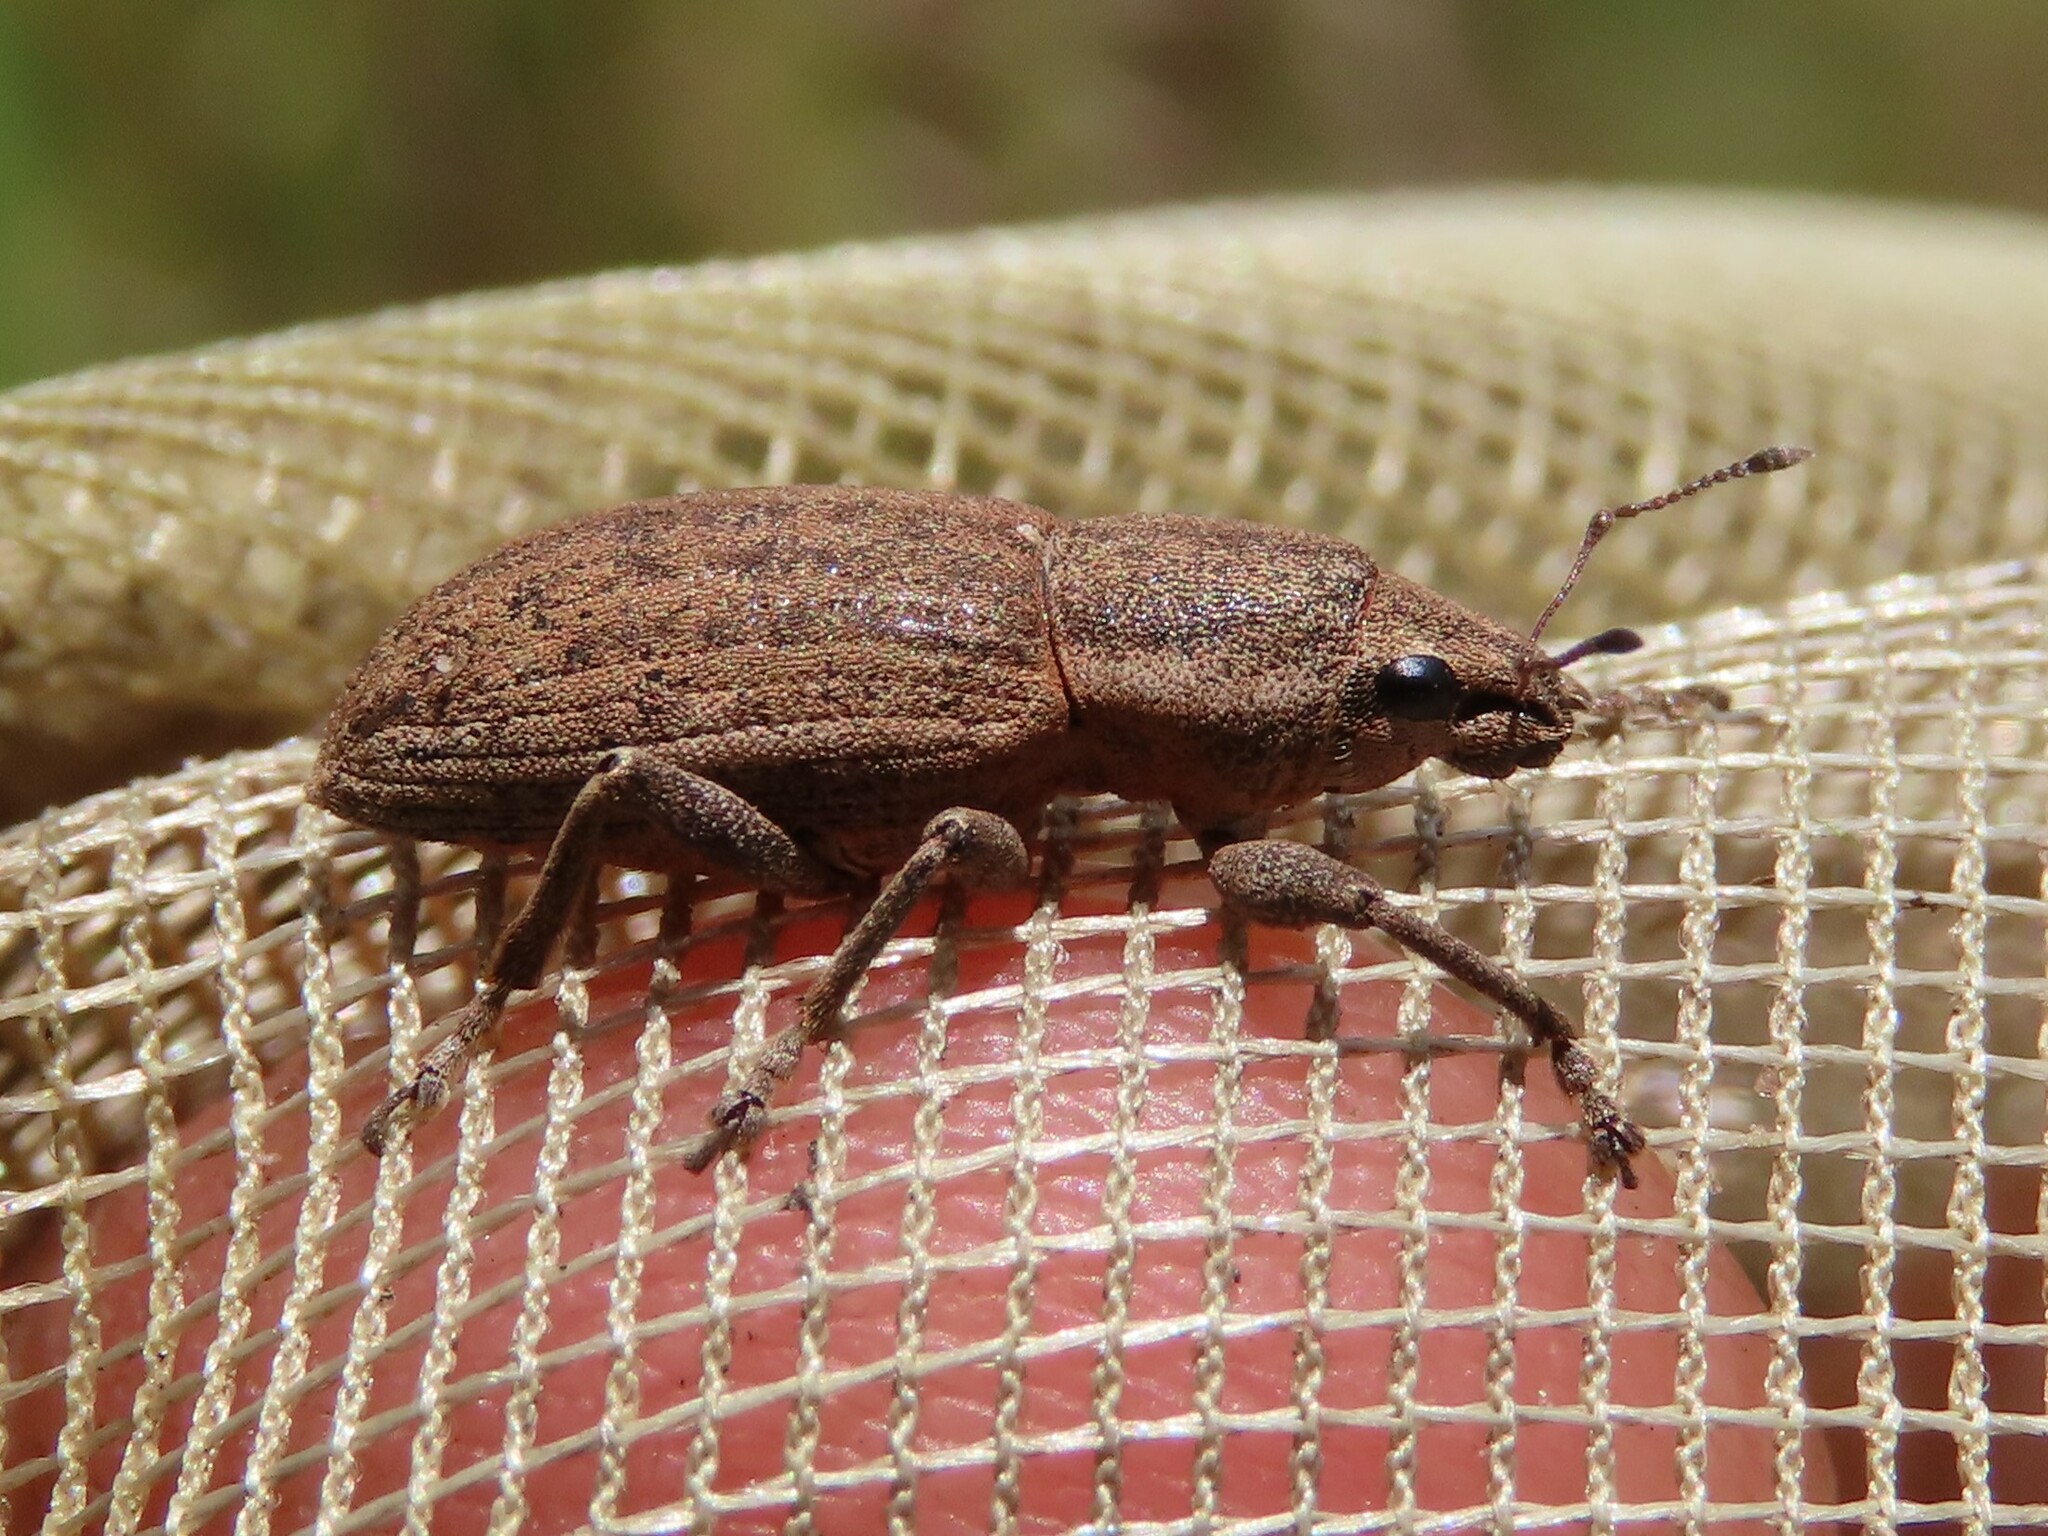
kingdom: Animalia
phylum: Arthropoda
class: Insecta
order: Coleoptera
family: Curculionidae
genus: Tanymecus
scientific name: Tanymecus lacaena
